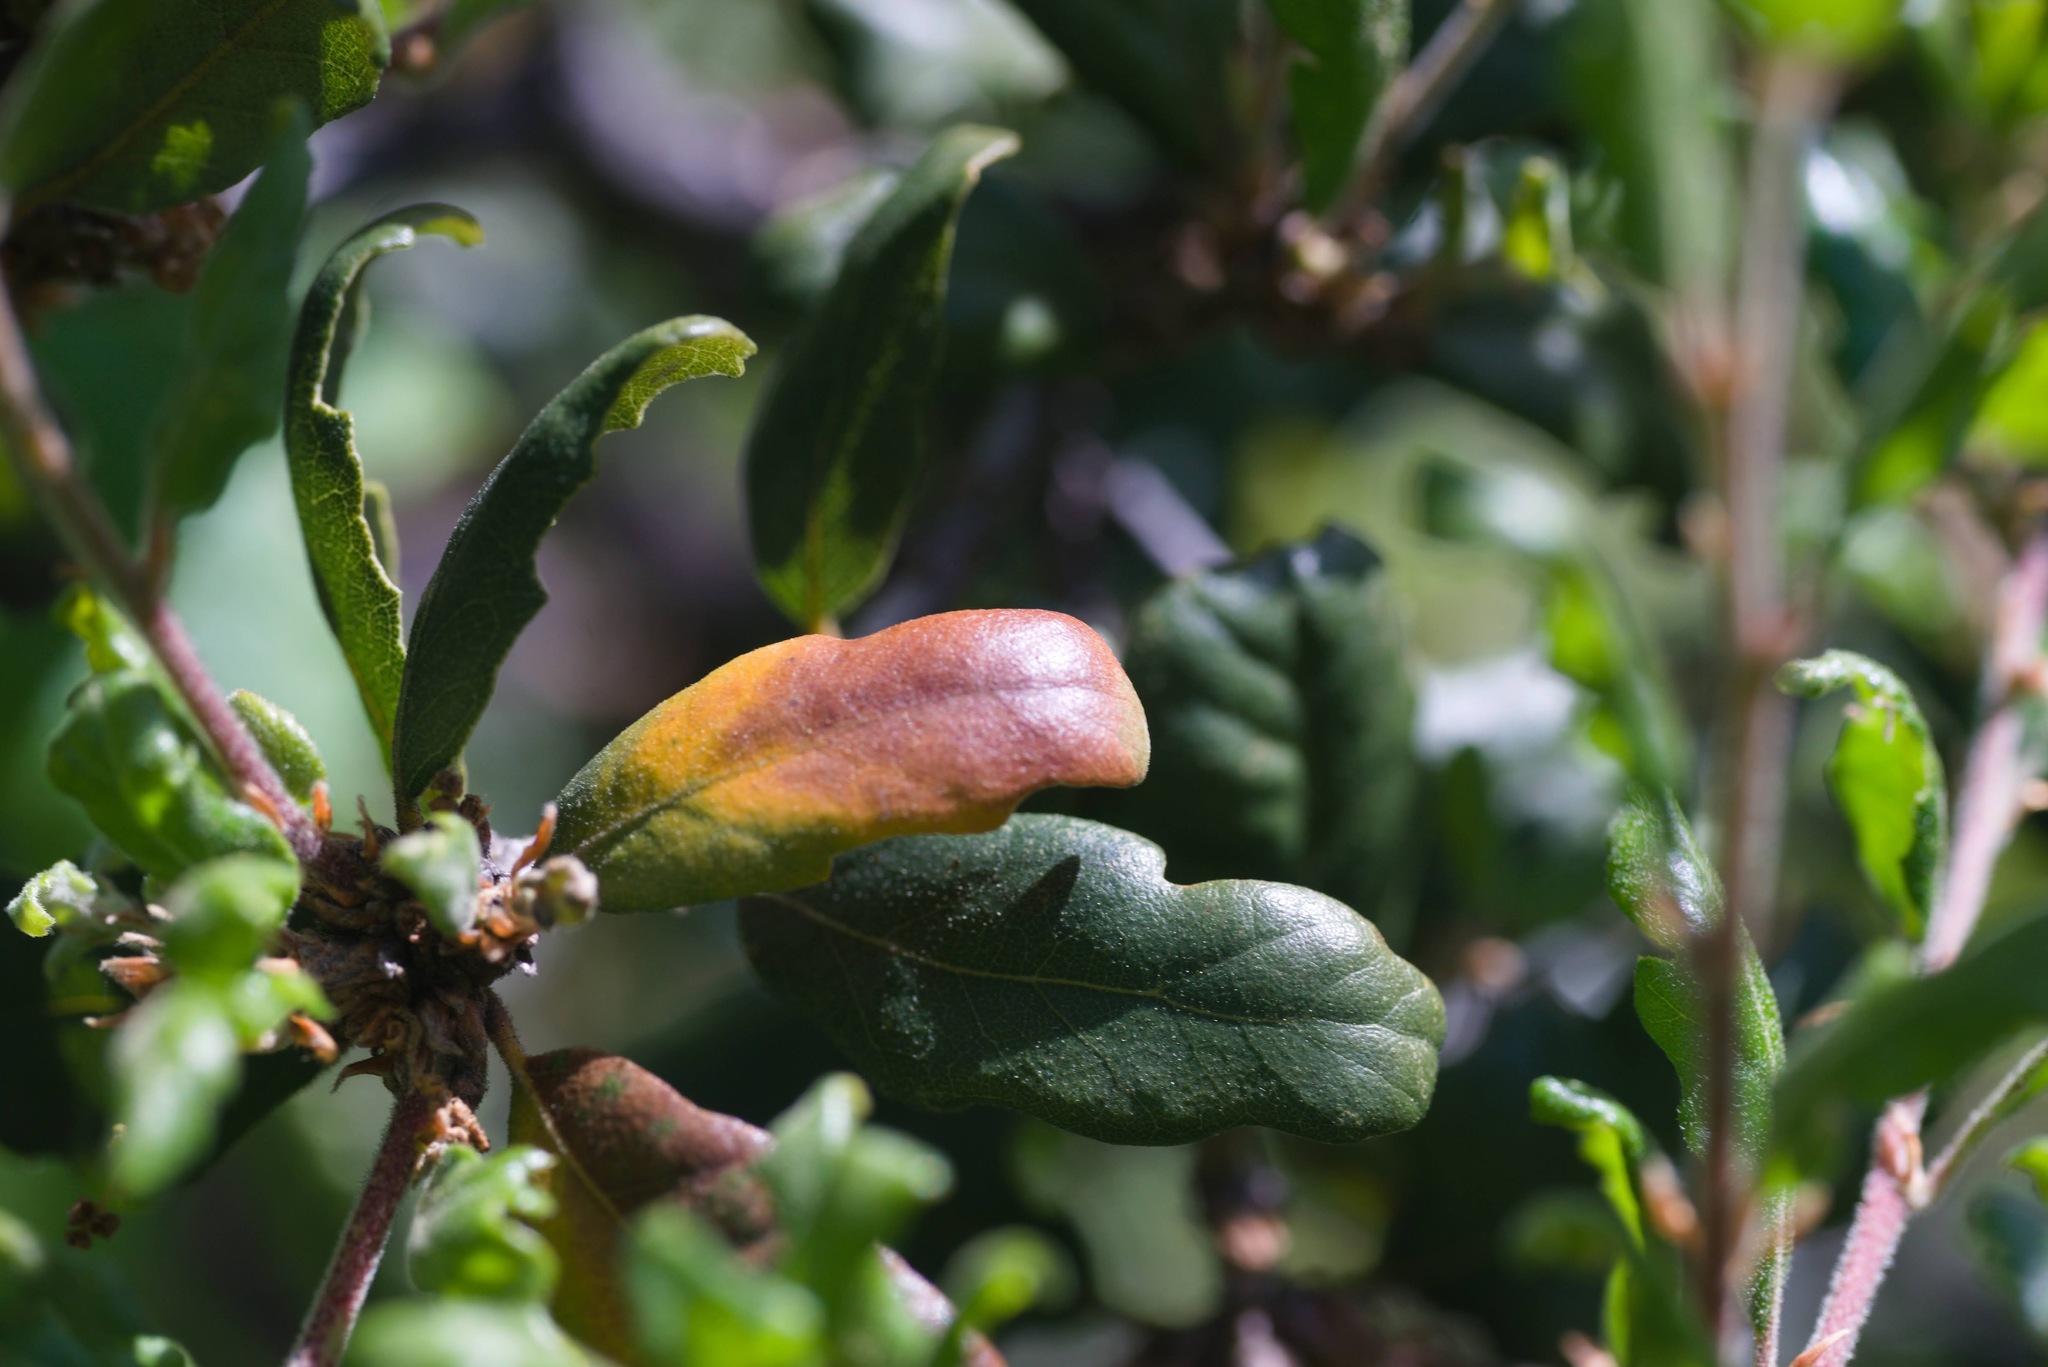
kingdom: Plantae
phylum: Tracheophyta
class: Magnoliopsida
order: Fagales
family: Fagaceae
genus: Quercus
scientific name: Quercus durata
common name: Leather oak
